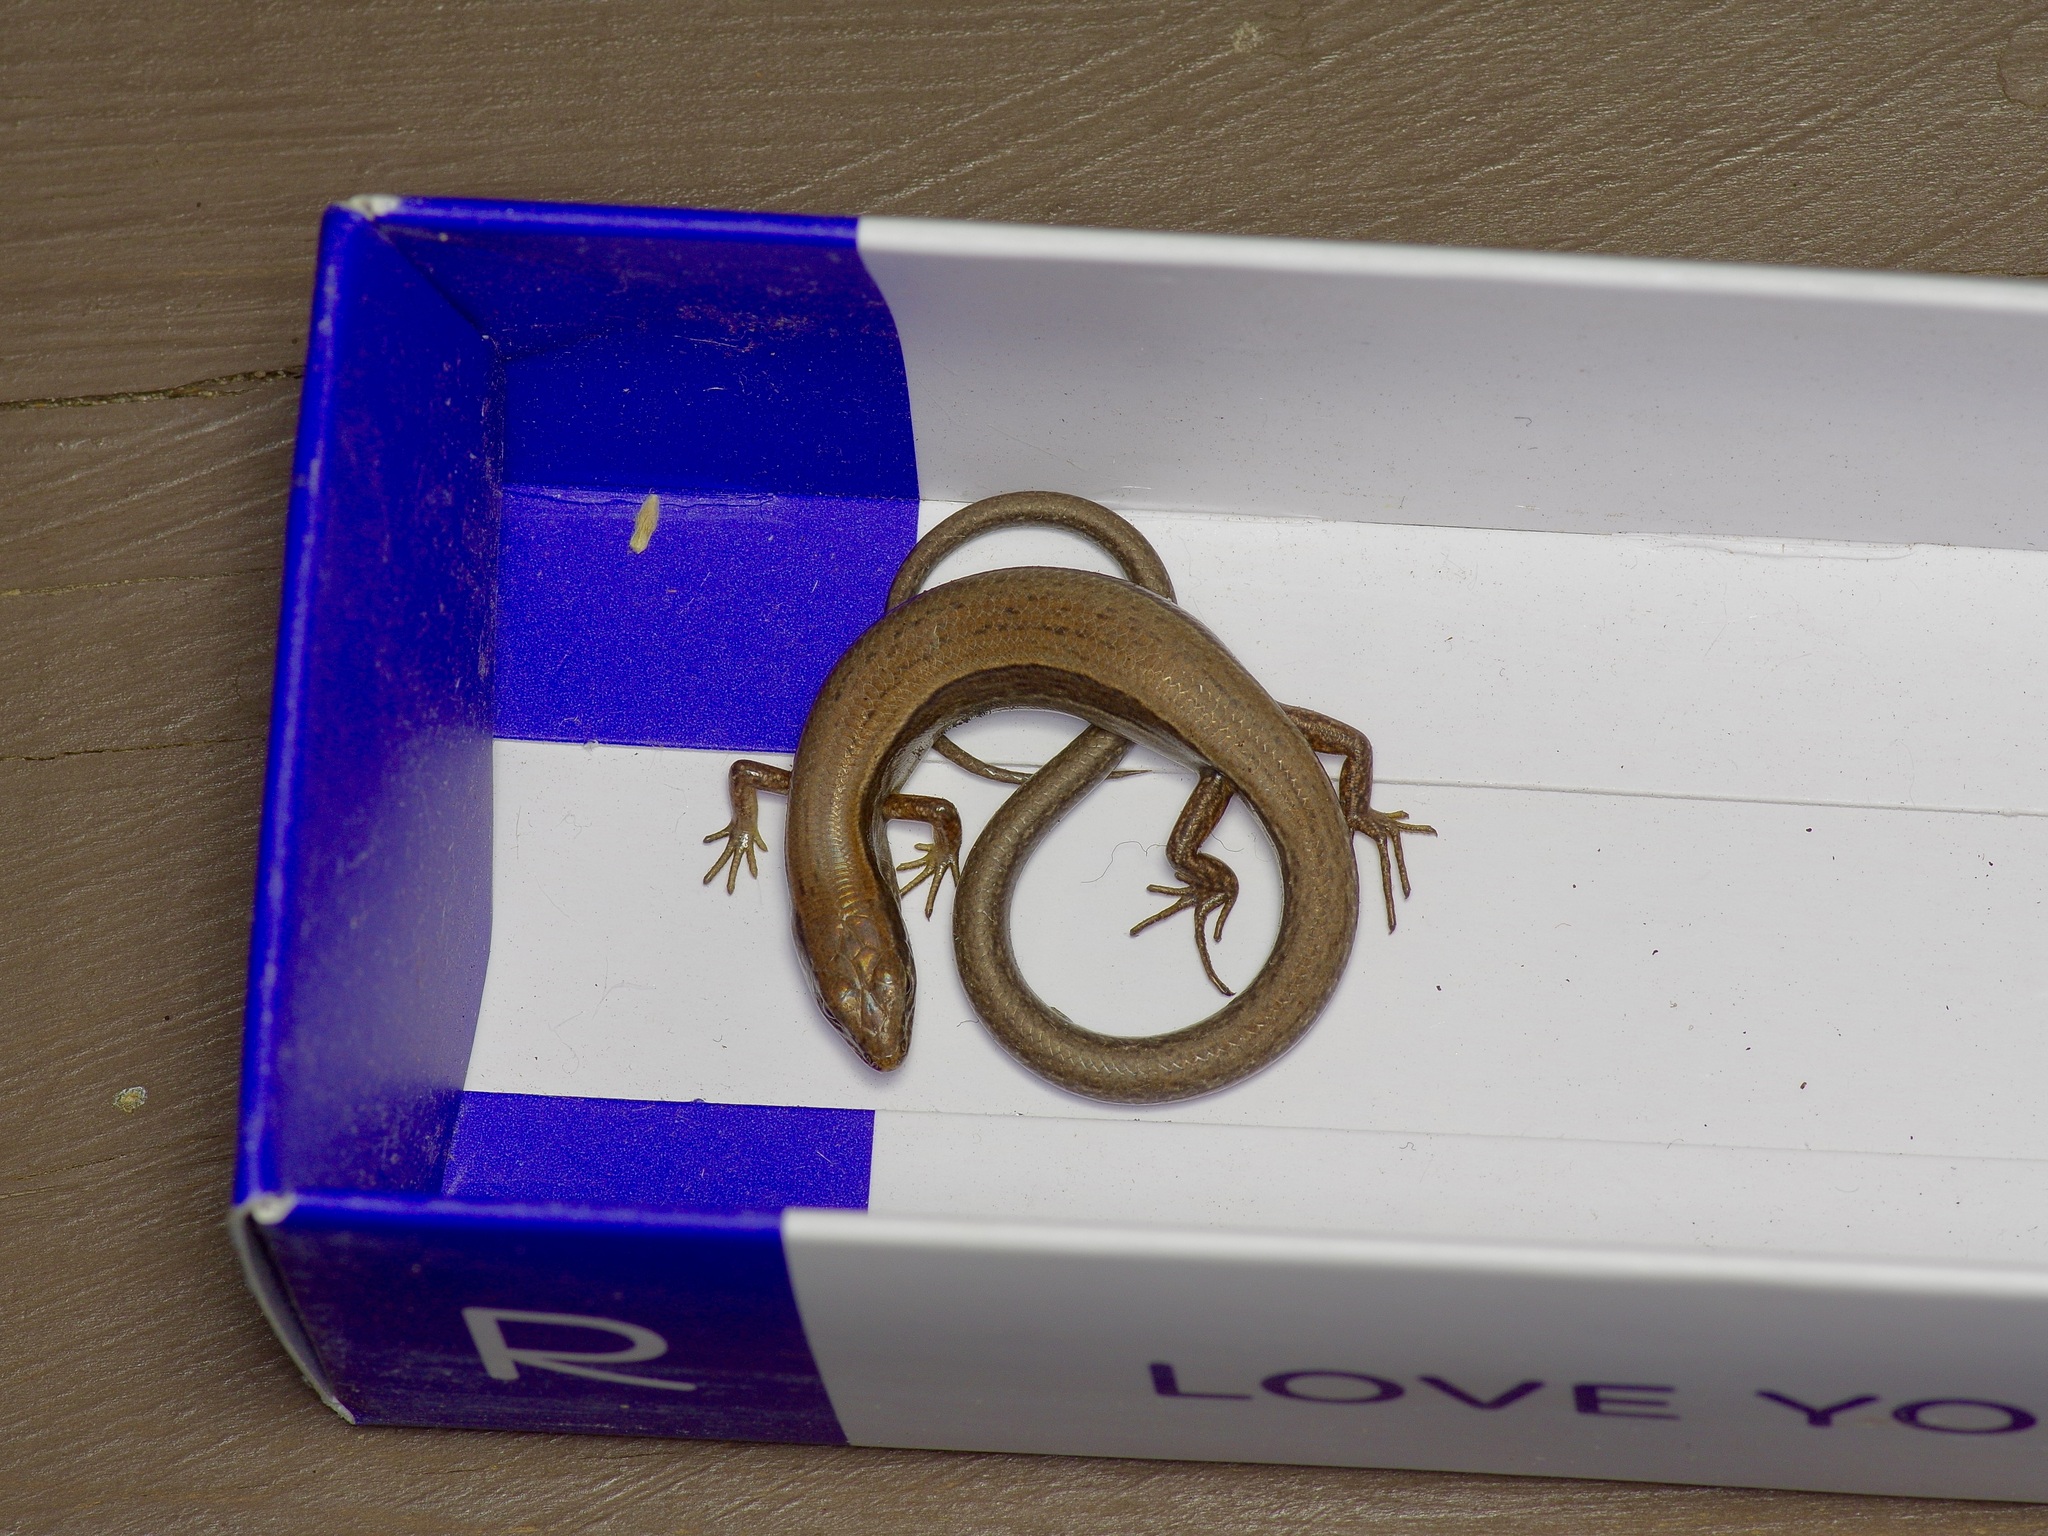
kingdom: Animalia
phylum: Chordata
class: Squamata
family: Scincidae
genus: Scincella
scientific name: Scincella lateralis
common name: Ground skink
